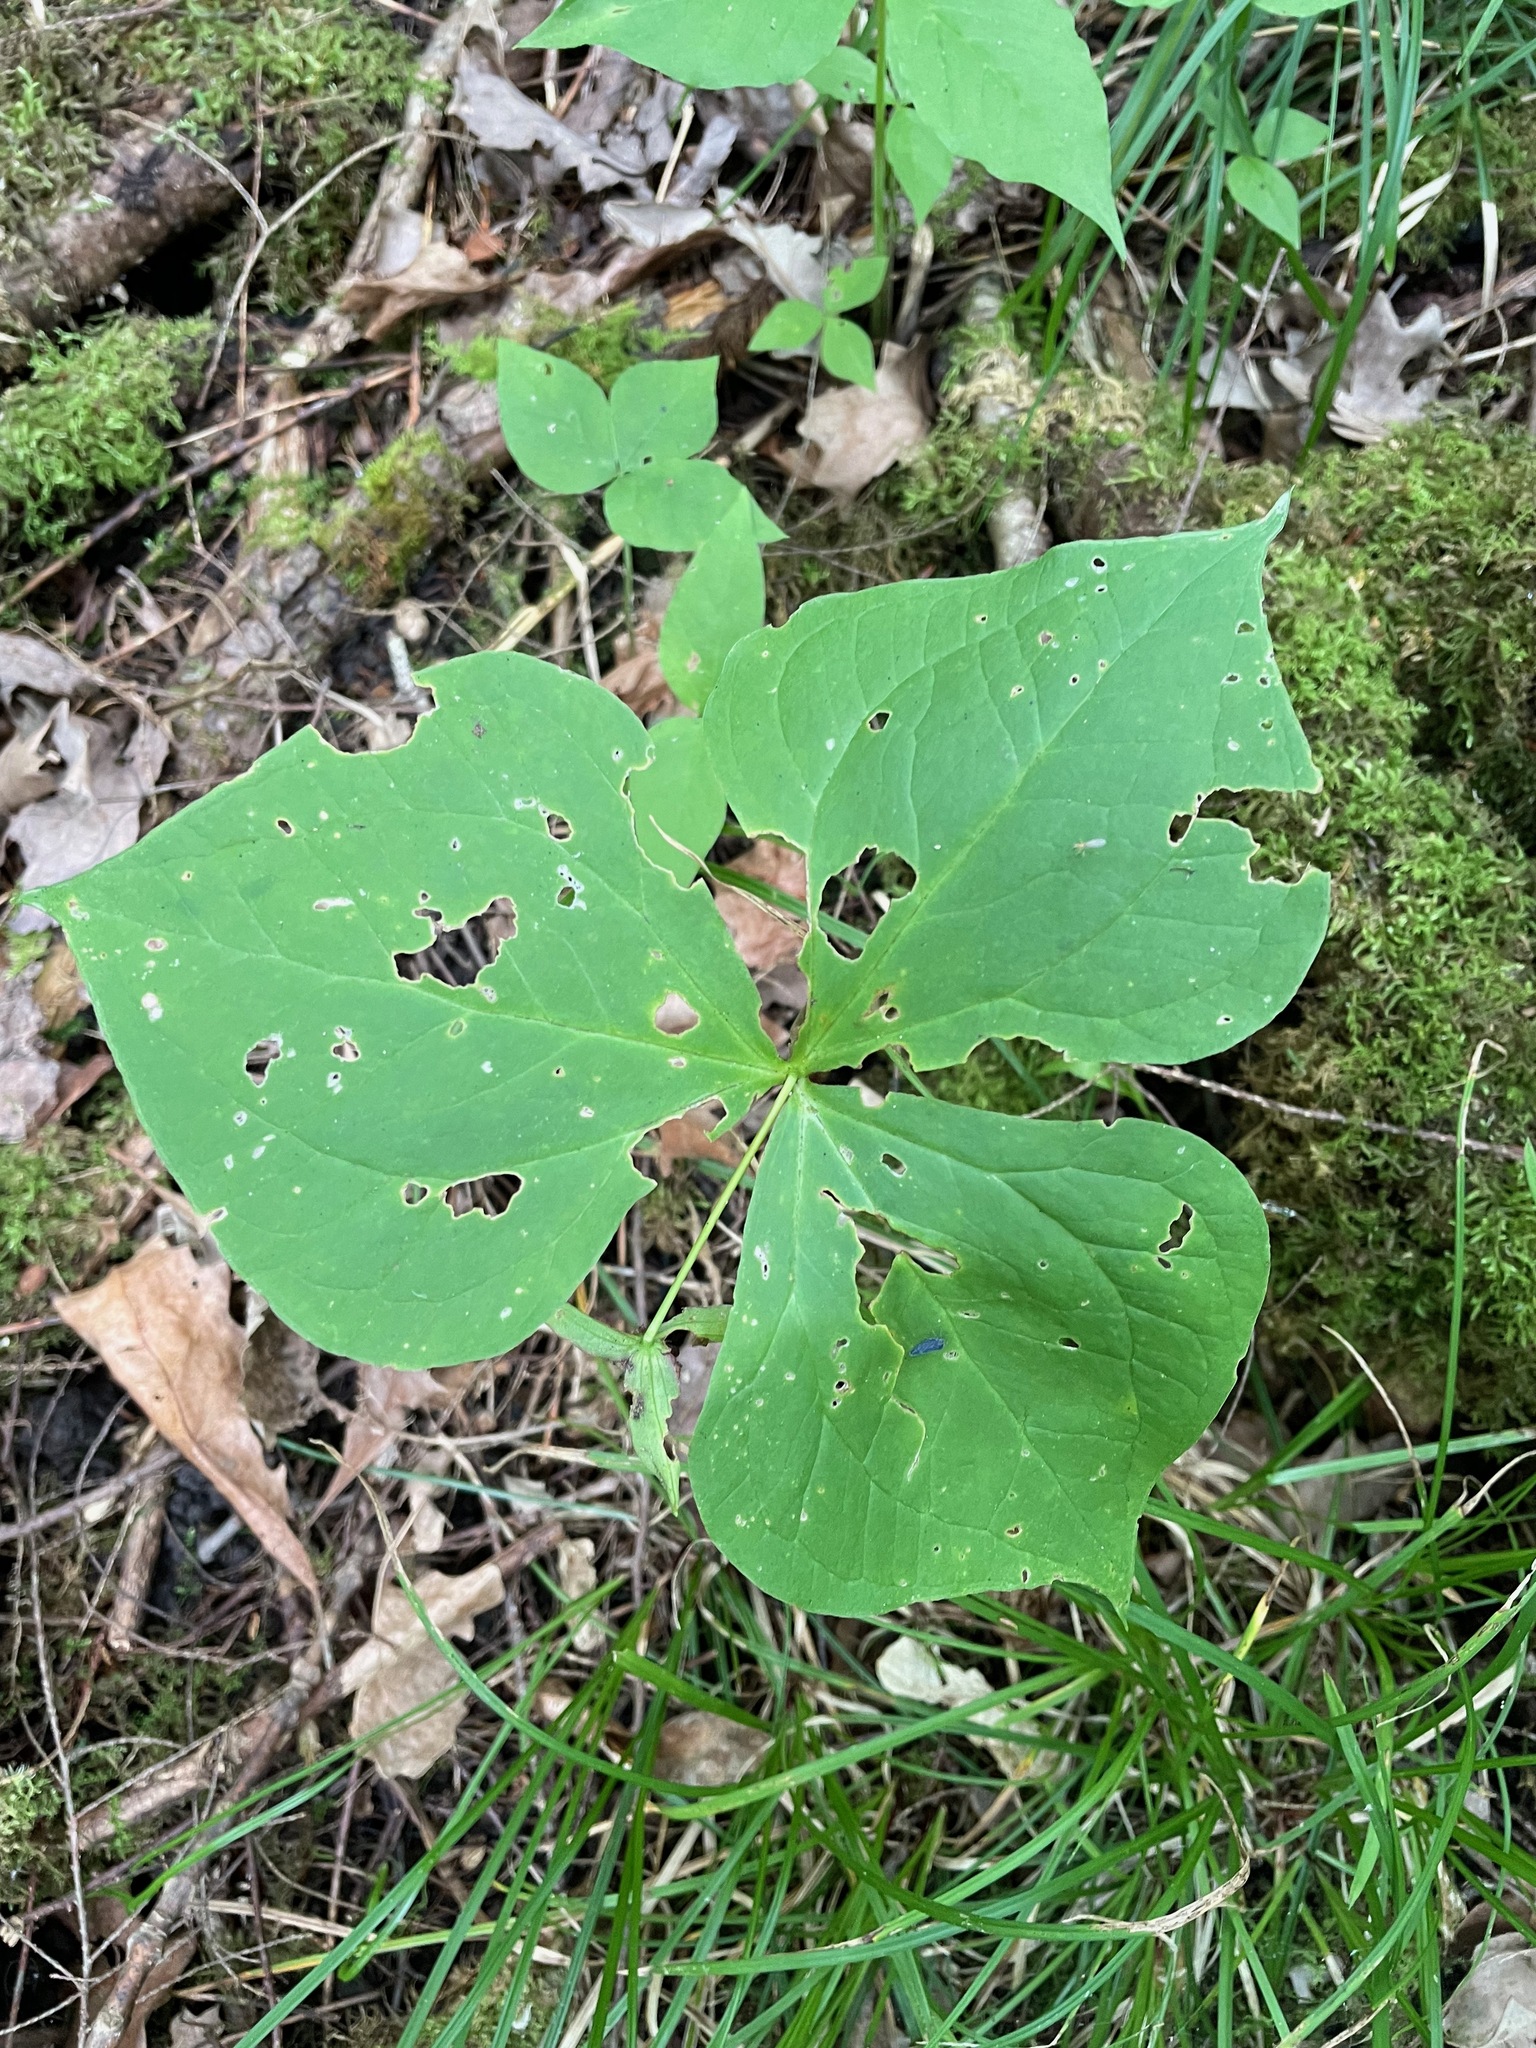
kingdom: Plantae
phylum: Tracheophyta
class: Liliopsida
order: Liliales
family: Melanthiaceae
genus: Trillium
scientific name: Trillium erectum
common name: Purple trillium
